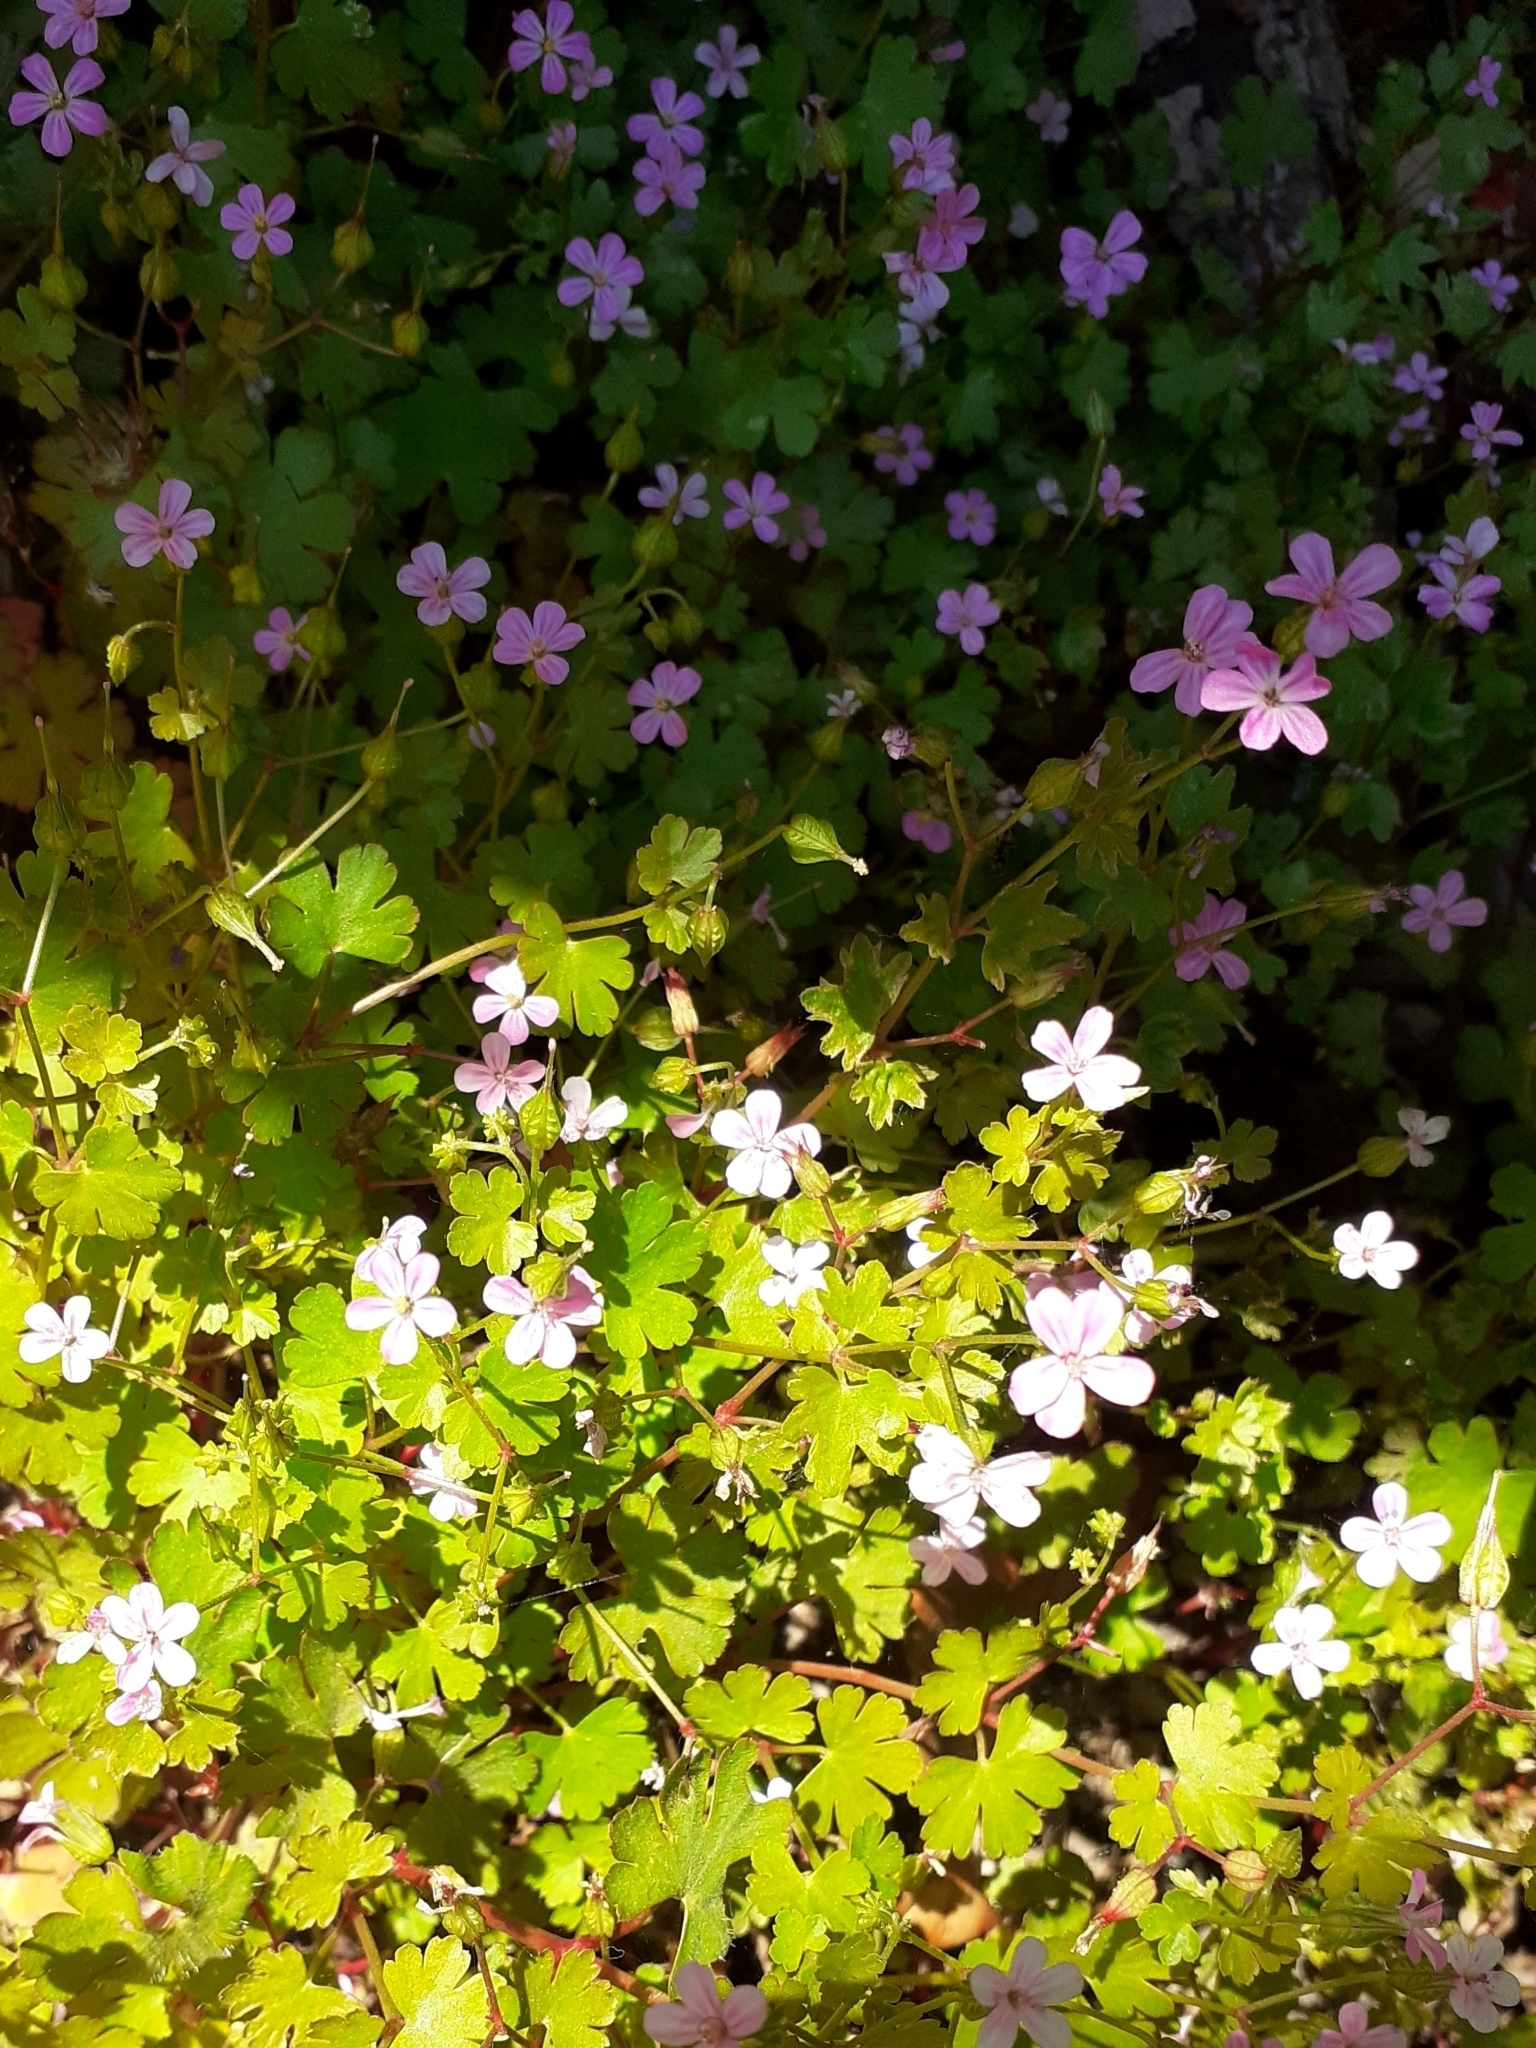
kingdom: Plantae
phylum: Tracheophyta
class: Magnoliopsida
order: Geraniales
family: Geraniaceae
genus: Geranium
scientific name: Geranium lucidum
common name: Shining crane's-bill
